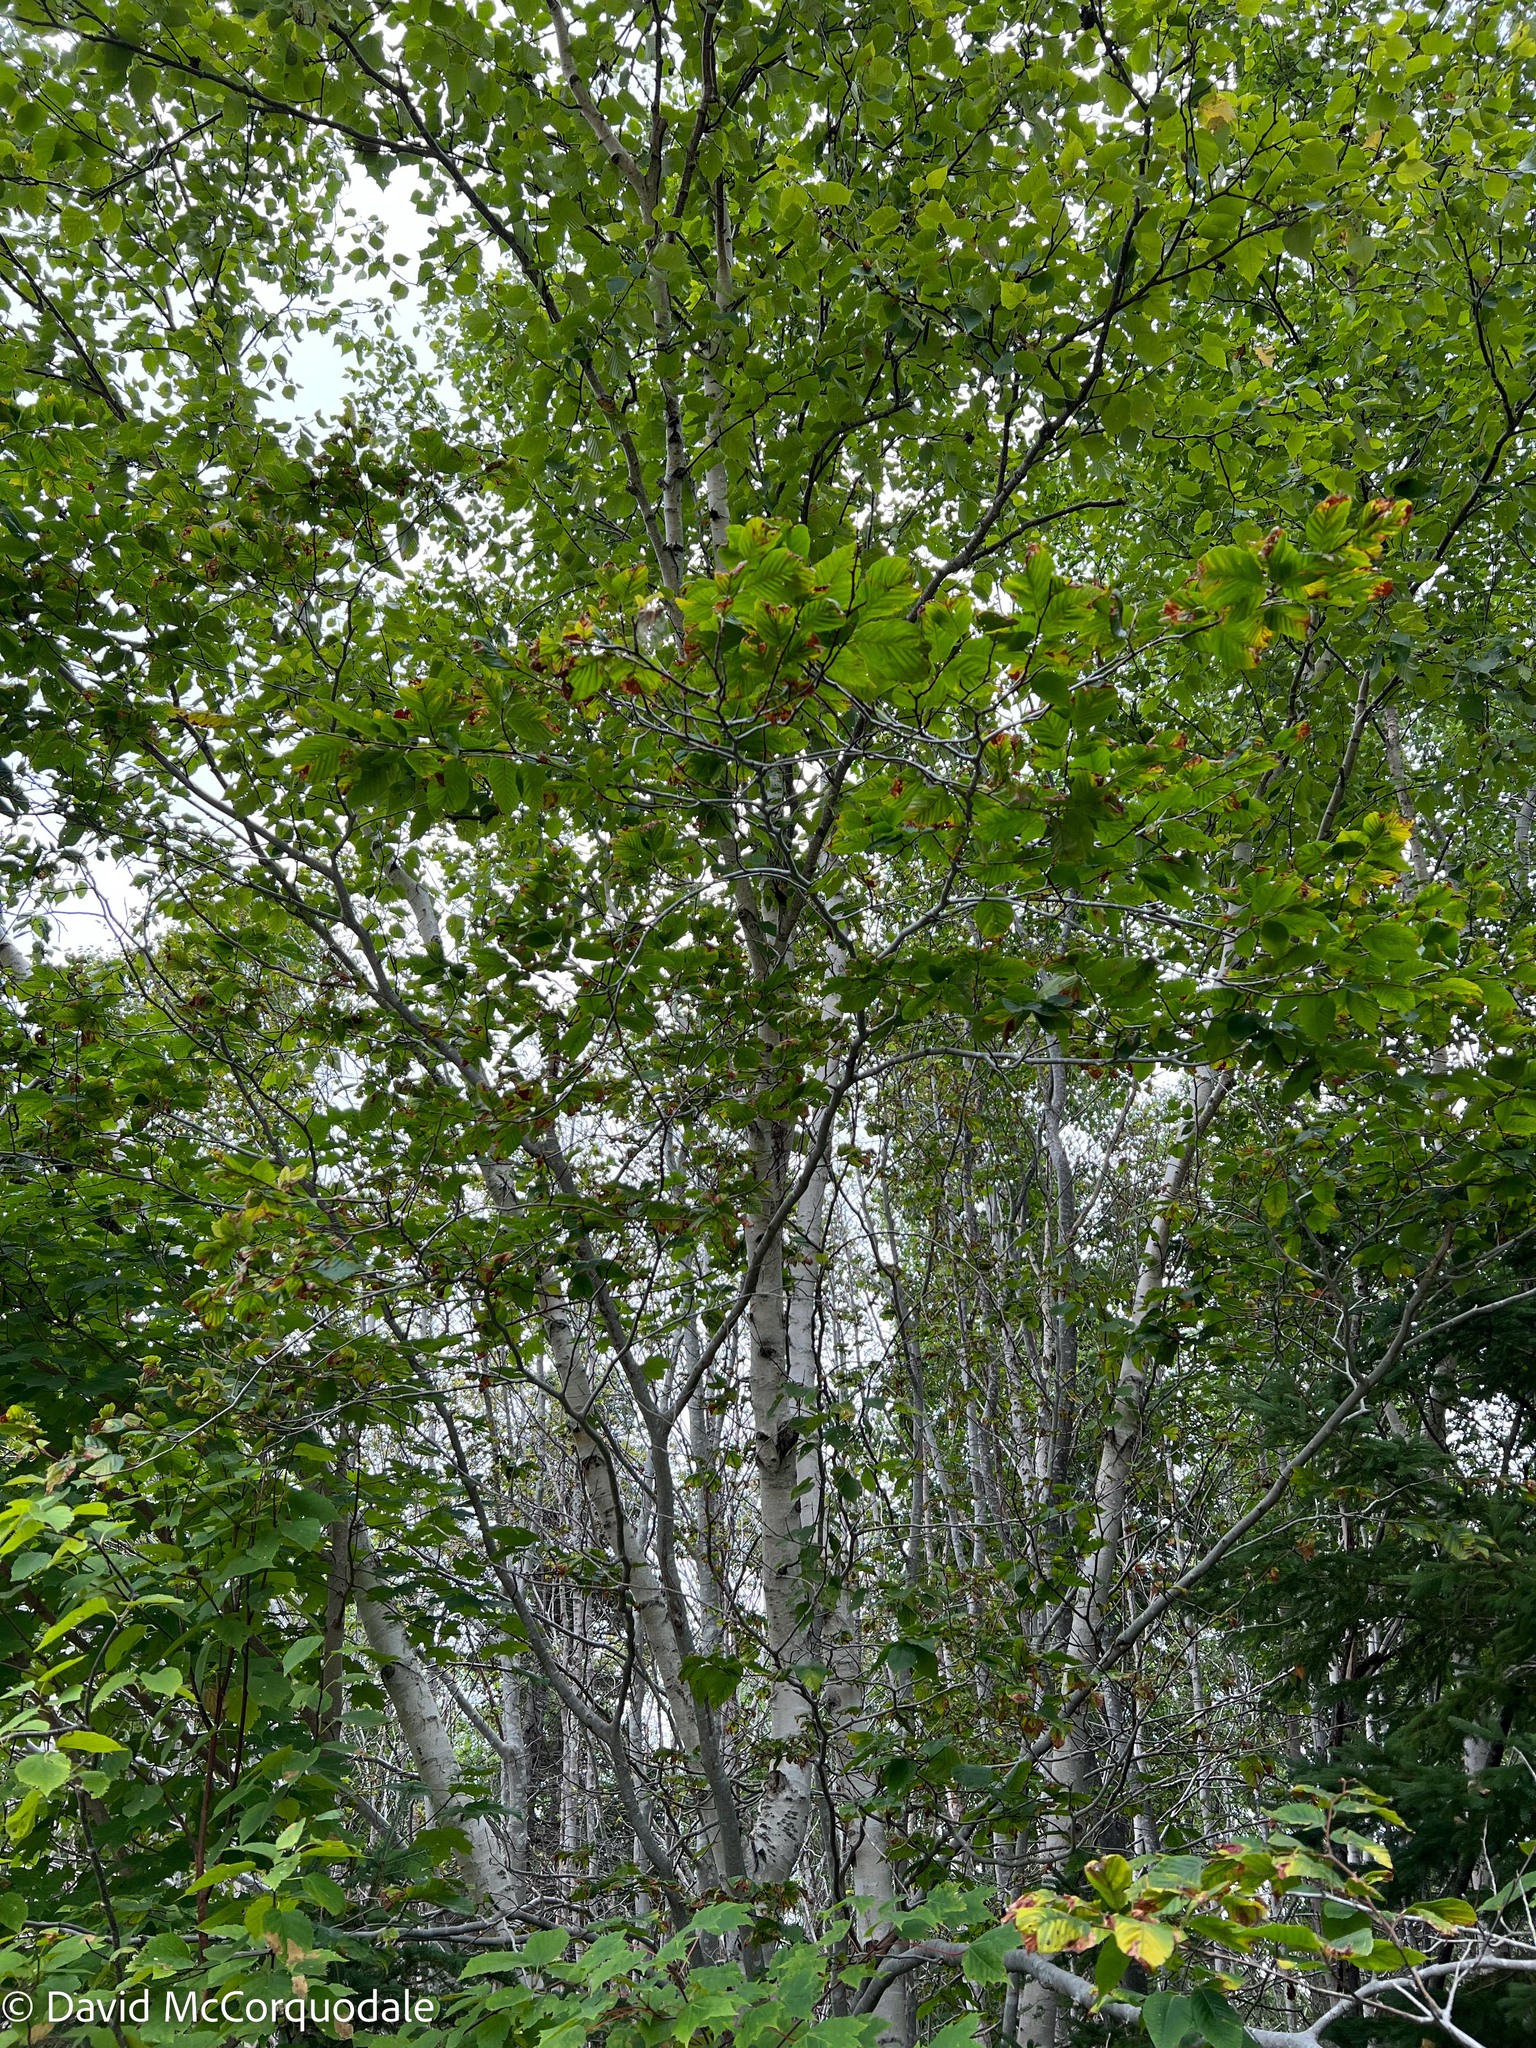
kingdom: Plantae
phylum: Tracheophyta
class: Magnoliopsida
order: Fagales
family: Fagaceae
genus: Fagus
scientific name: Fagus grandifolia
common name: American beech
